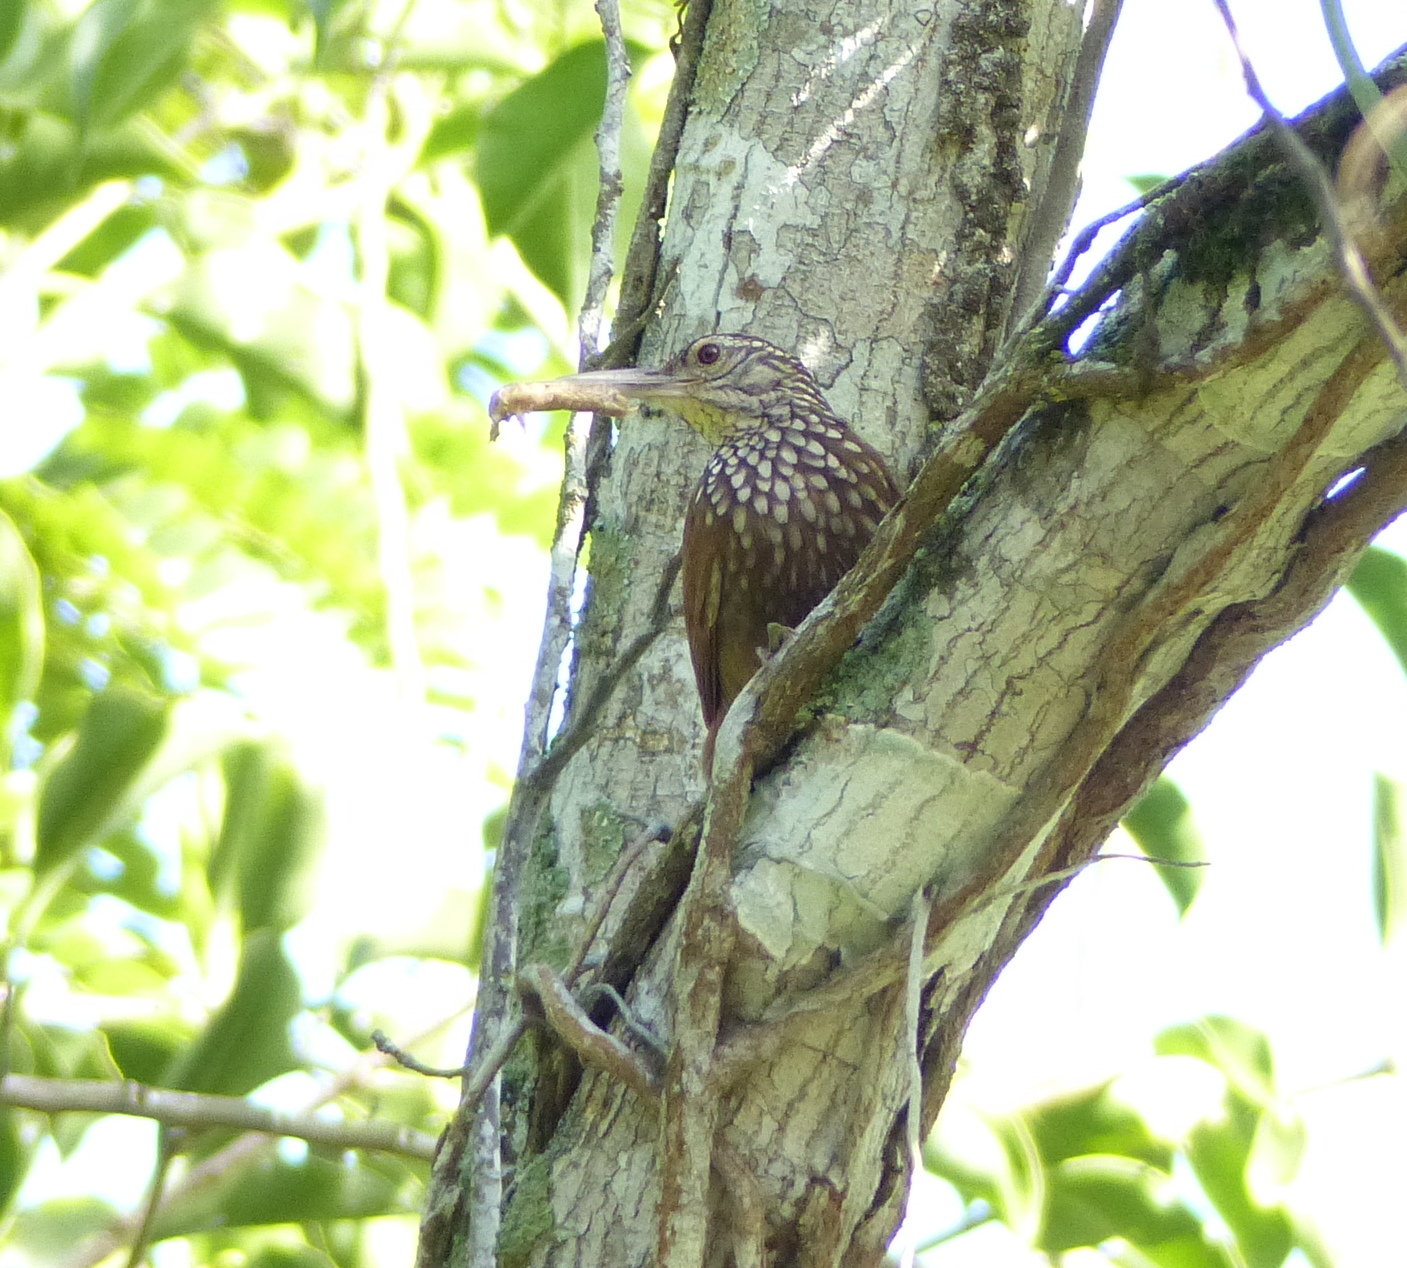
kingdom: Animalia
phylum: Chordata
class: Aves
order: Passeriformes
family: Furnariidae
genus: Xiphorhynchus
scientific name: Xiphorhynchus picus
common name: Straight-billed woodcreeper
